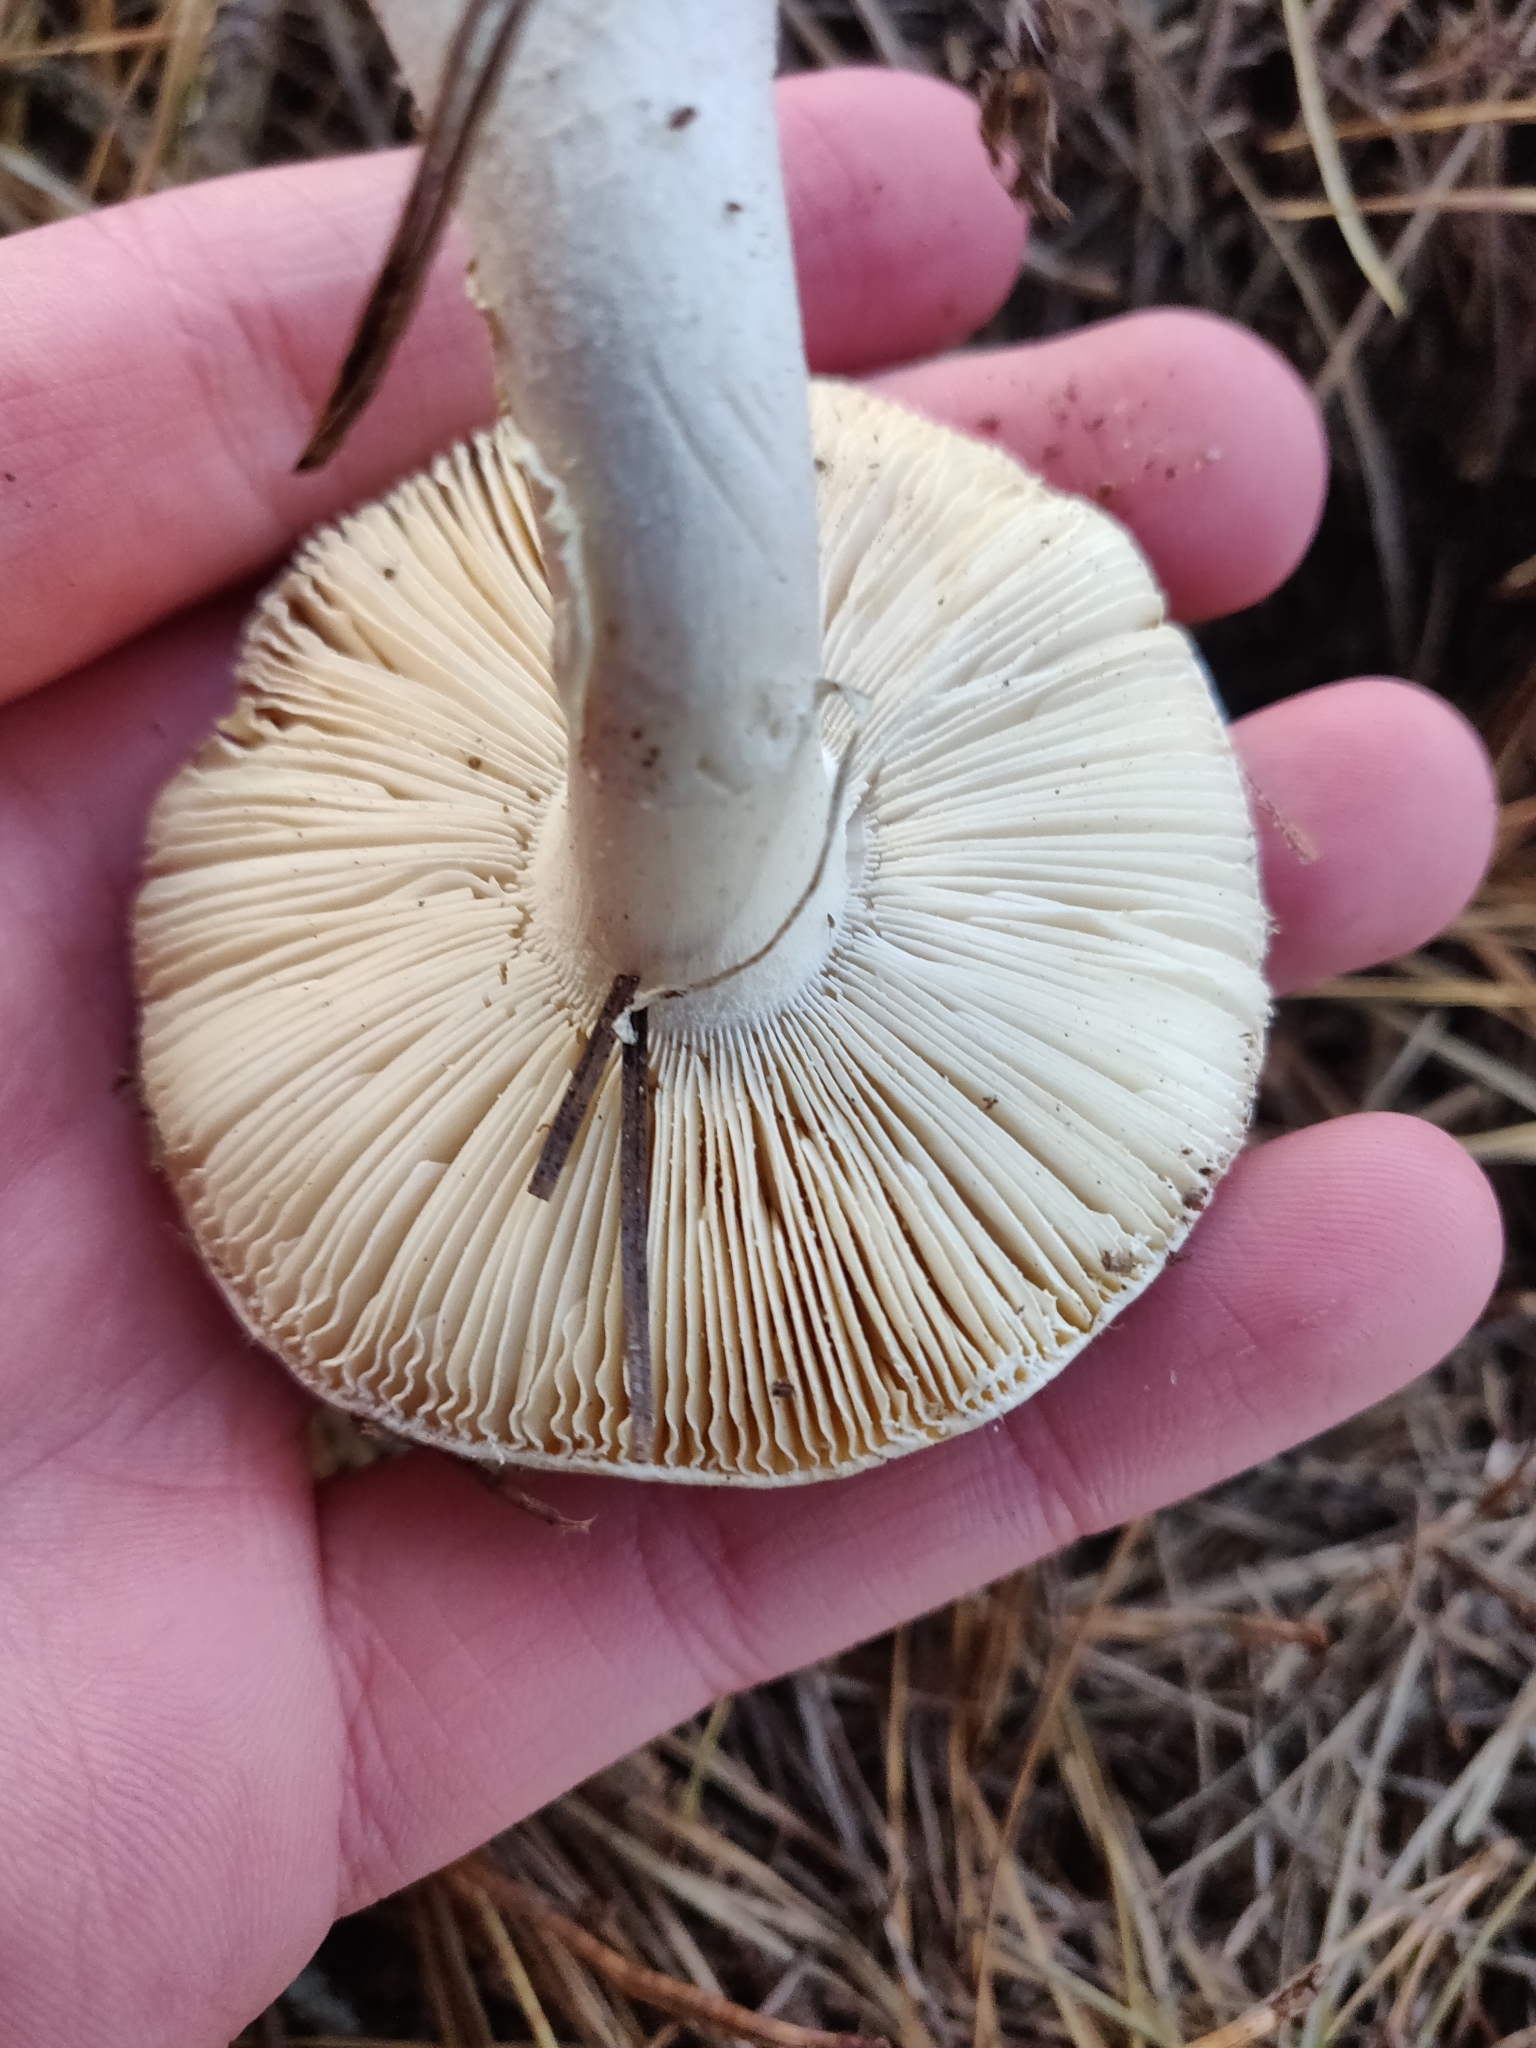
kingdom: Fungi
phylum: Basidiomycota
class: Agaricomycetes
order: Agaricales
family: Amanitaceae
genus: Amanita
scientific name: Amanita gemmata
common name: Jewelled amanita
